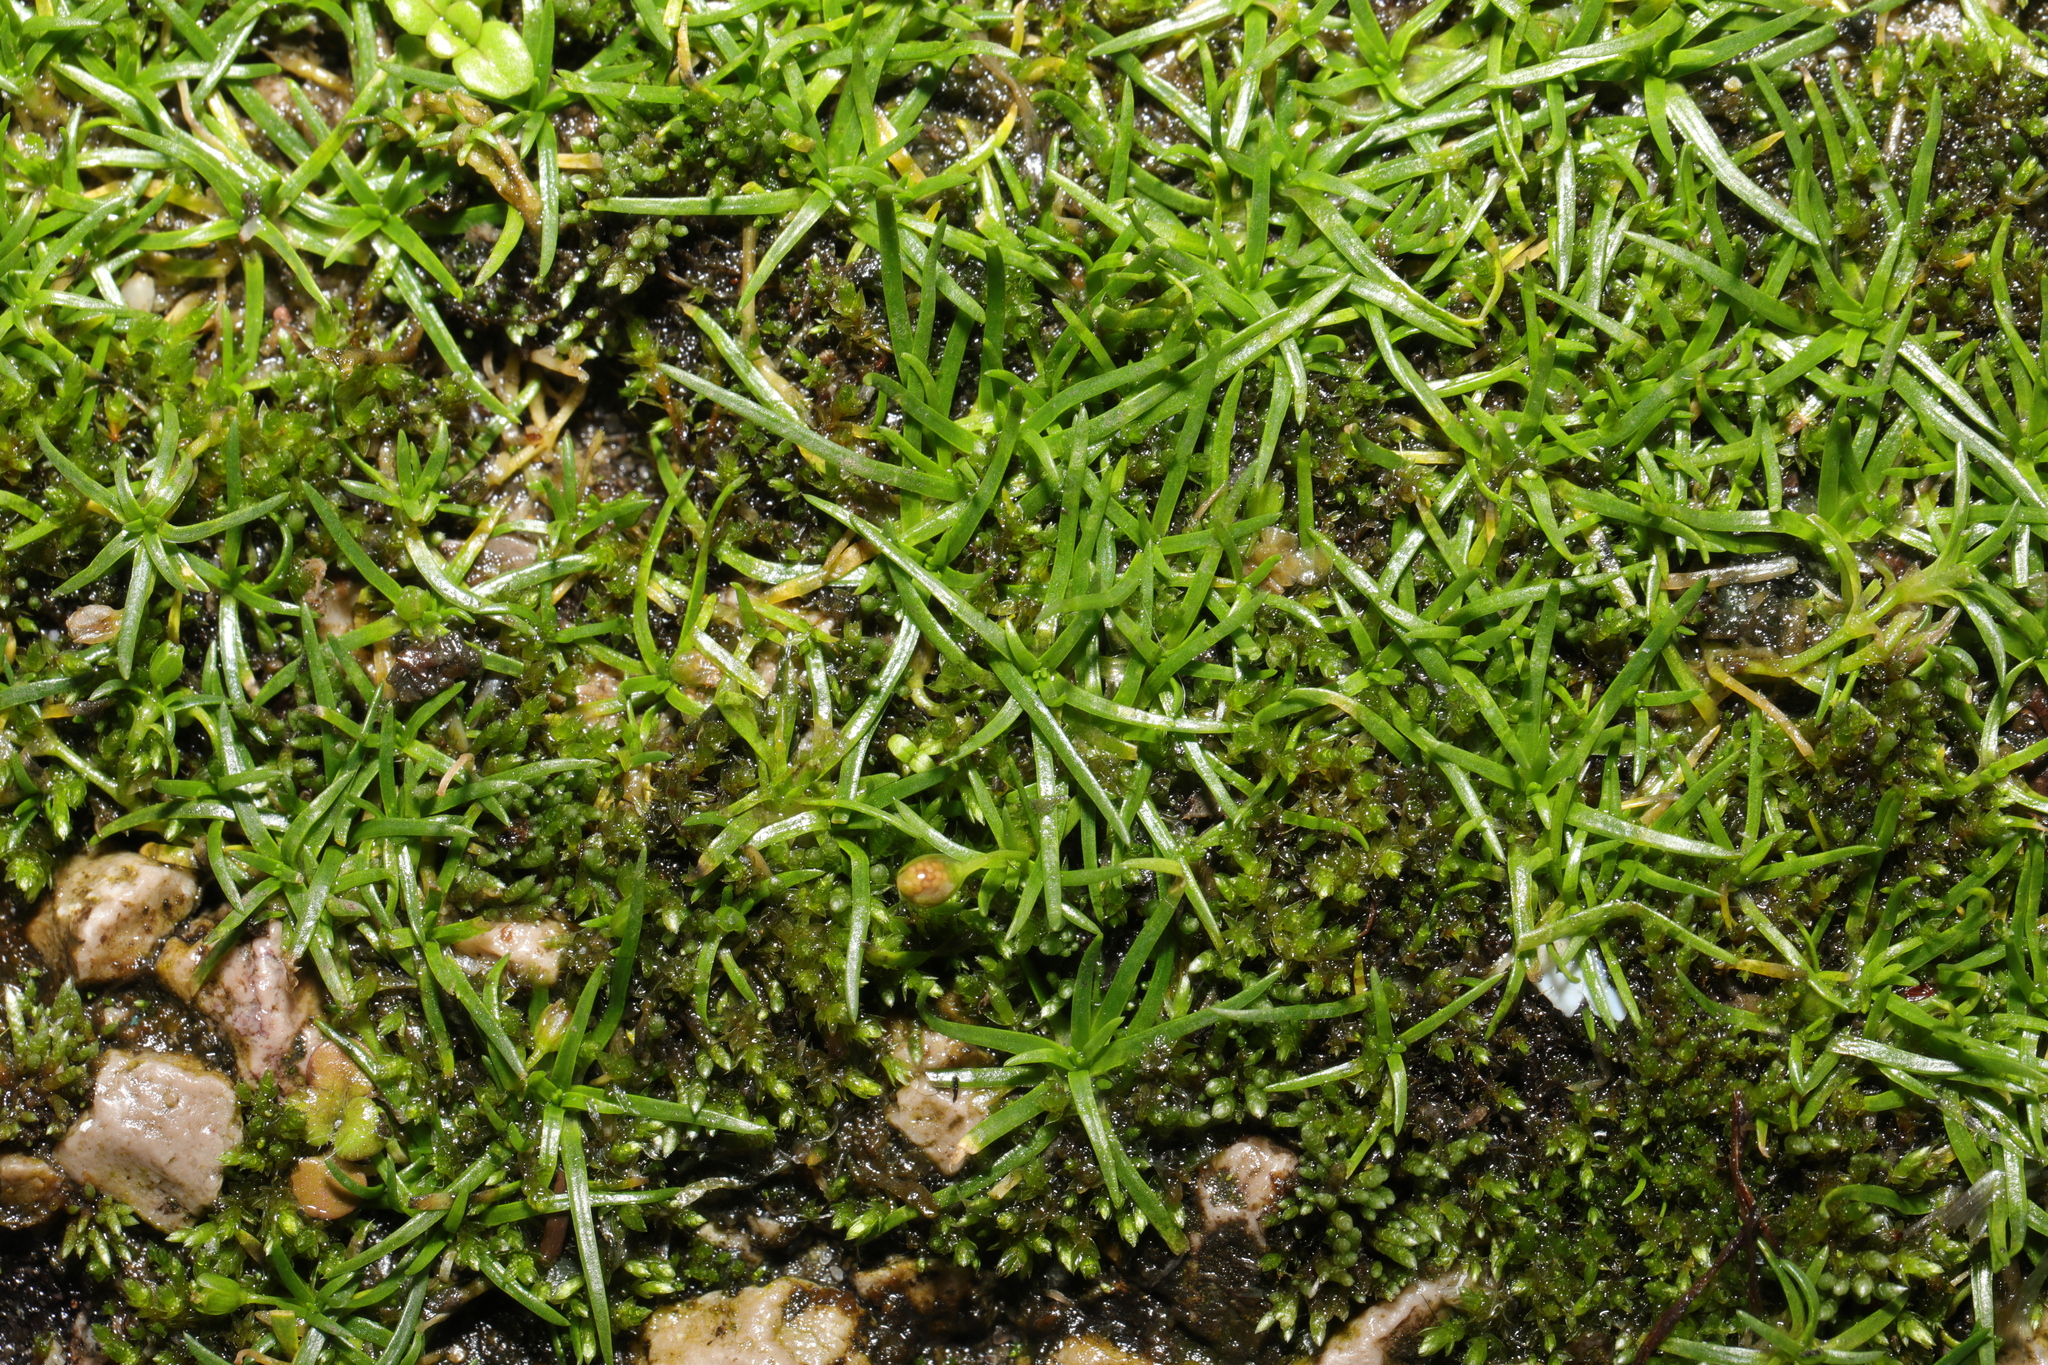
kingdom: Plantae
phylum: Tracheophyta
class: Magnoliopsida
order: Caryophyllales
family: Caryophyllaceae
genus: Sagina
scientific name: Sagina procumbens
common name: Procumbent pearlwort
